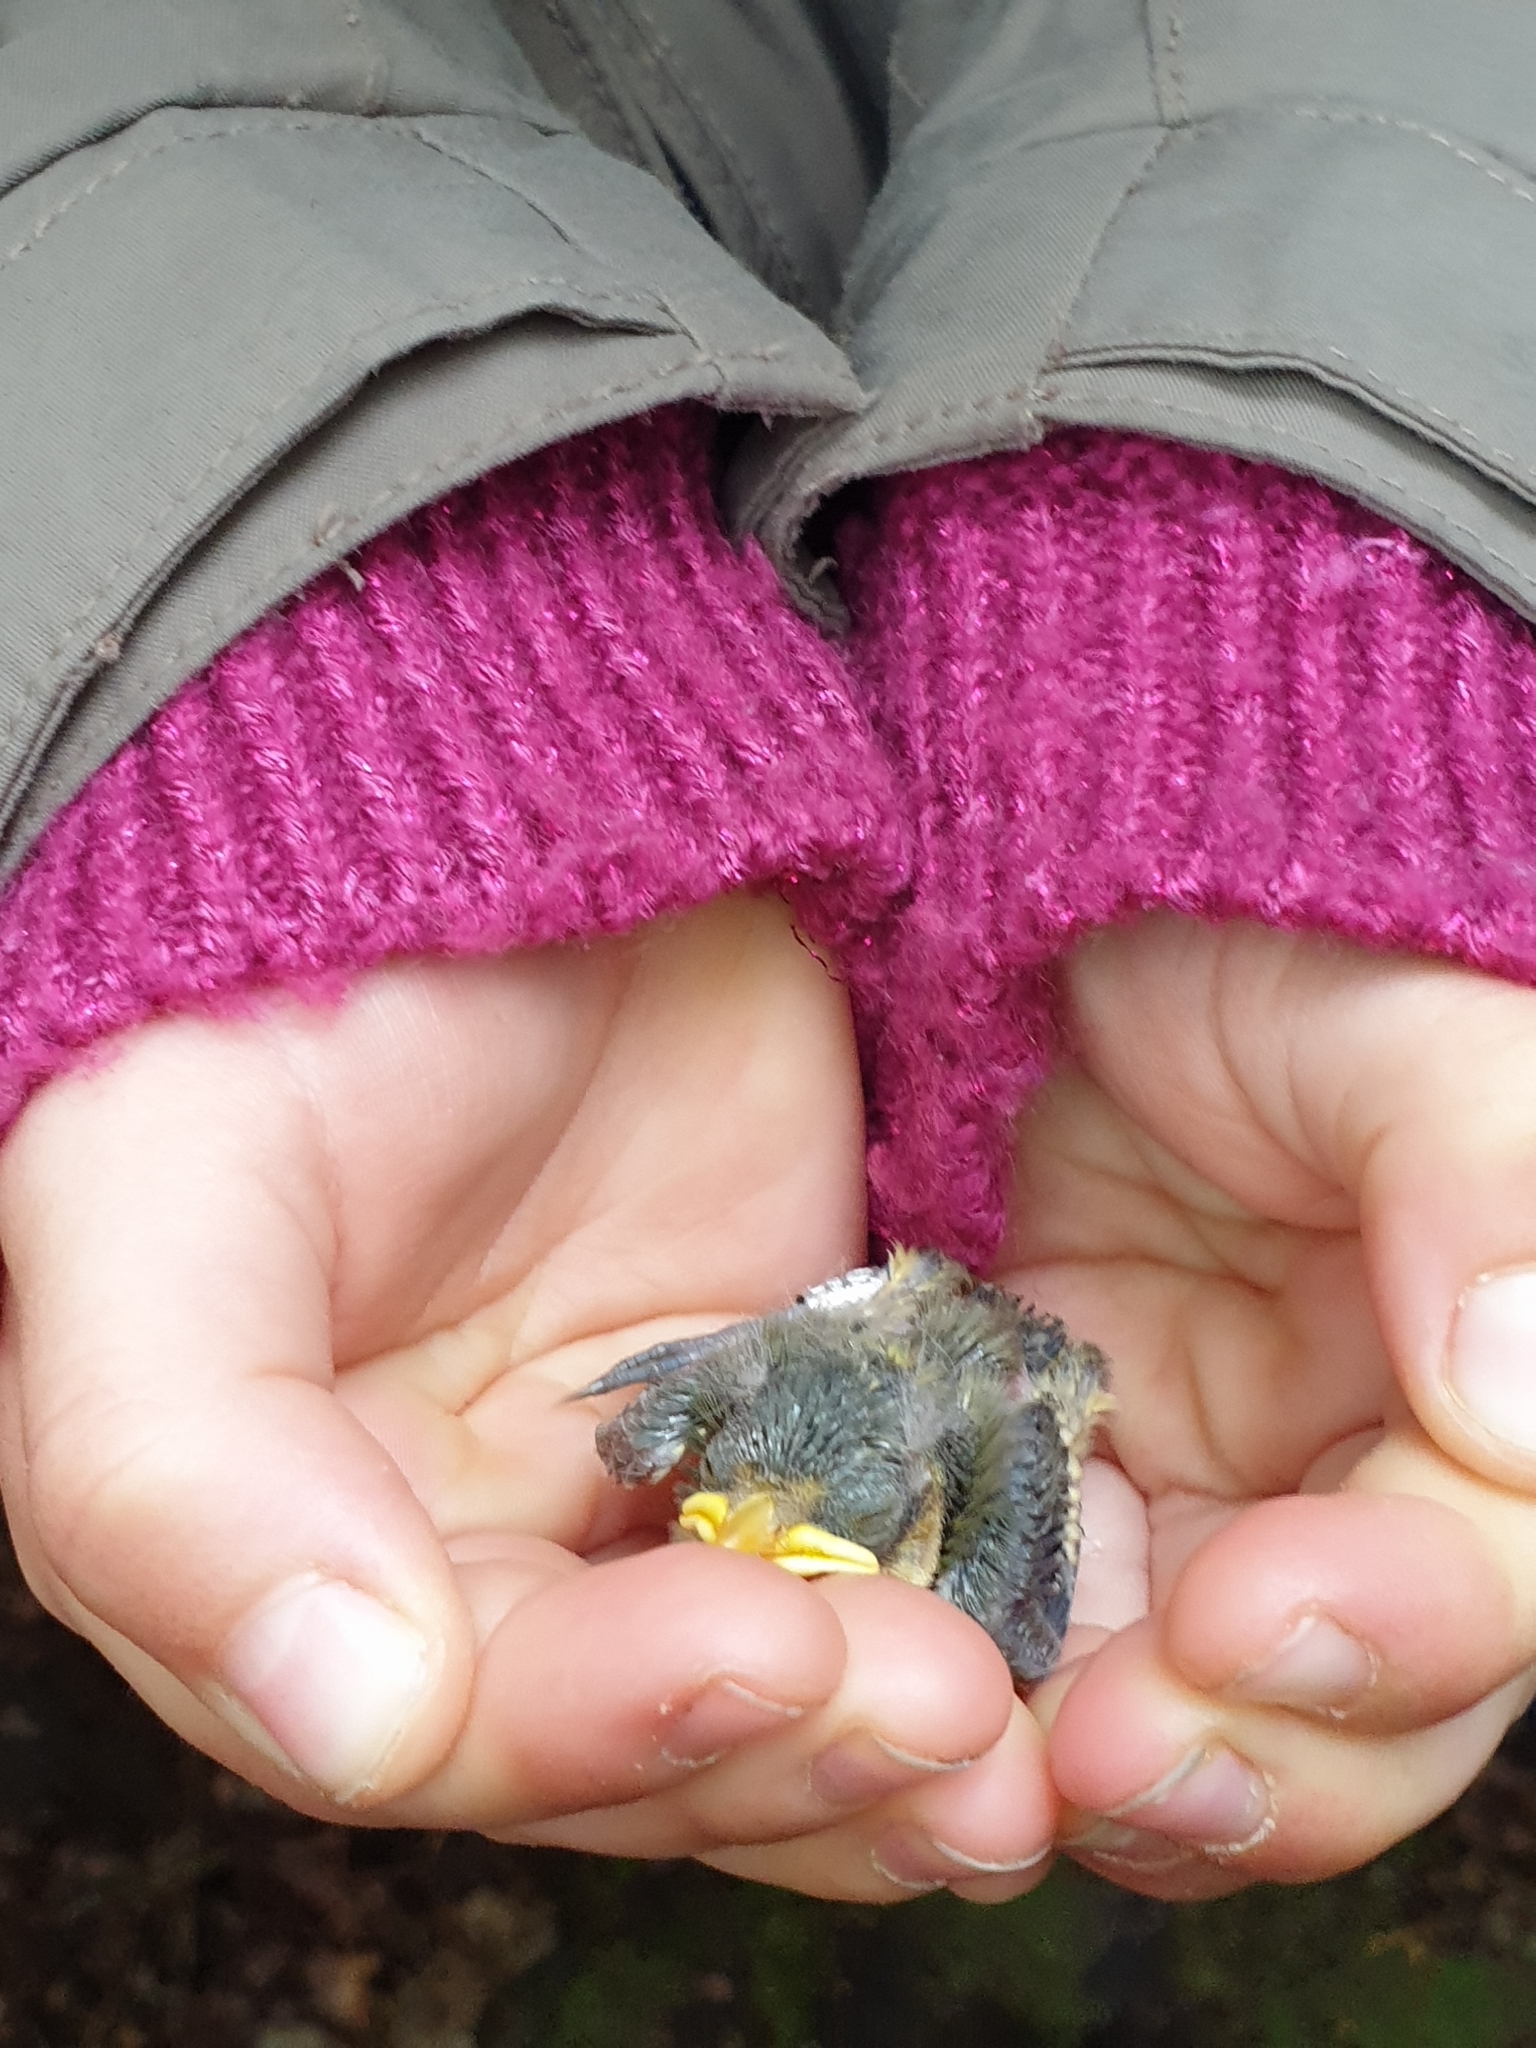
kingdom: Animalia
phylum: Chordata
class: Aves
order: Passeriformes
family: Paridae
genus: Cyanistes
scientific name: Cyanistes caeruleus
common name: Eurasian blue tit
